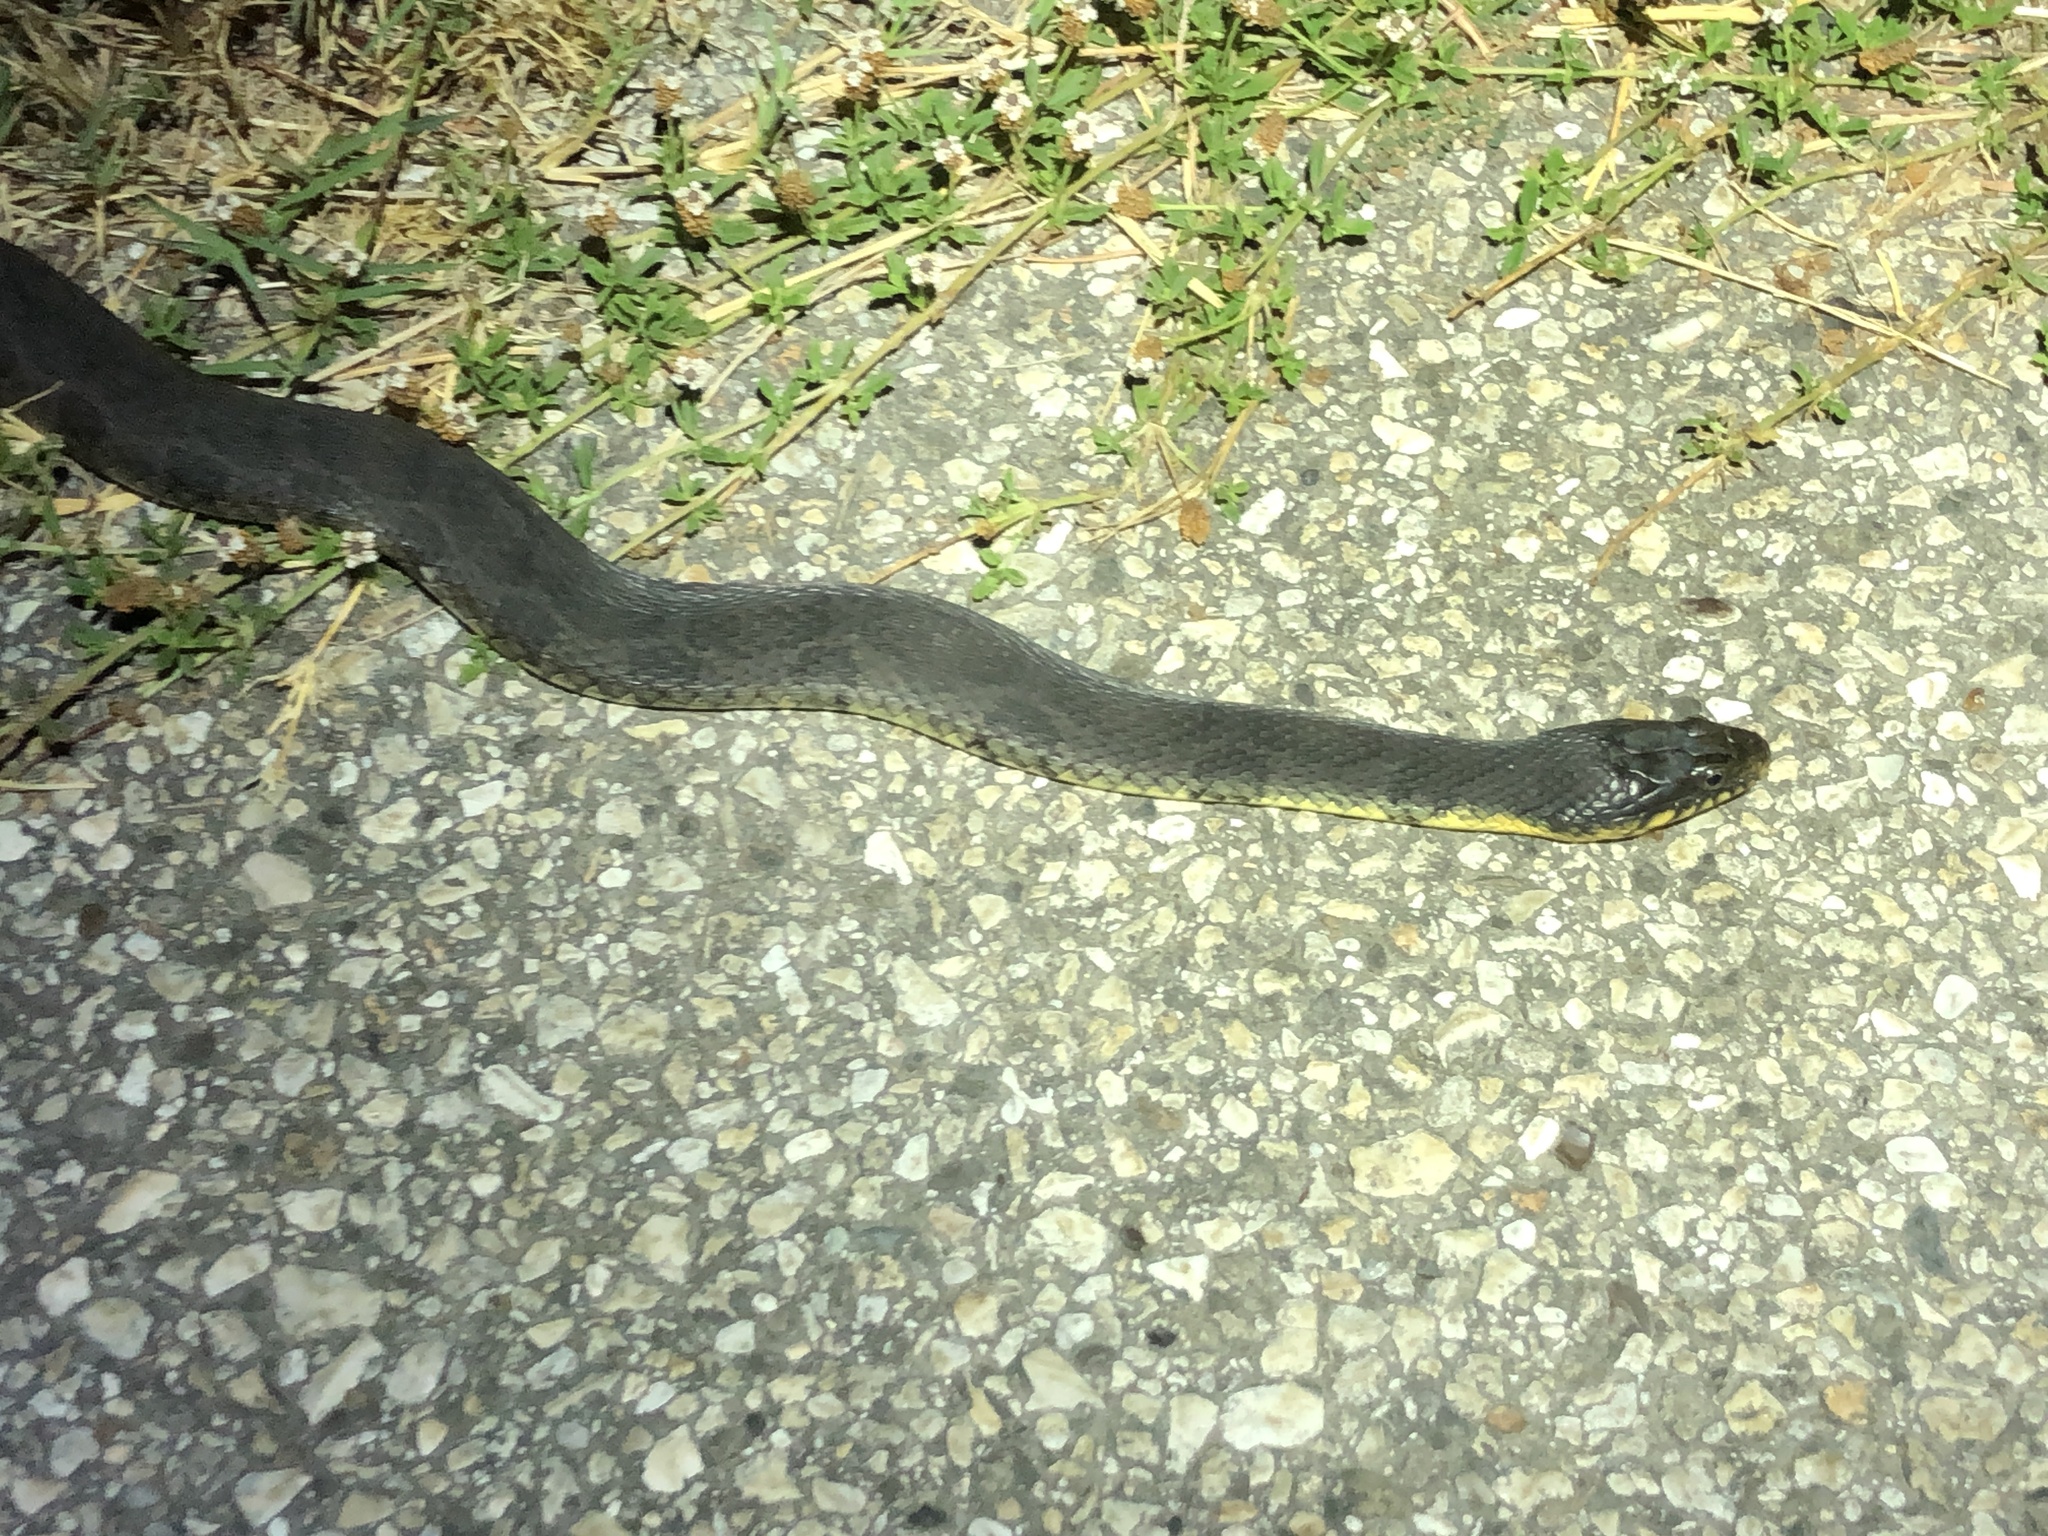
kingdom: Animalia
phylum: Chordata
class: Squamata
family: Colubridae
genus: Nerodia
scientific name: Nerodia erythrogaster
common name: Plainbelly water snake
